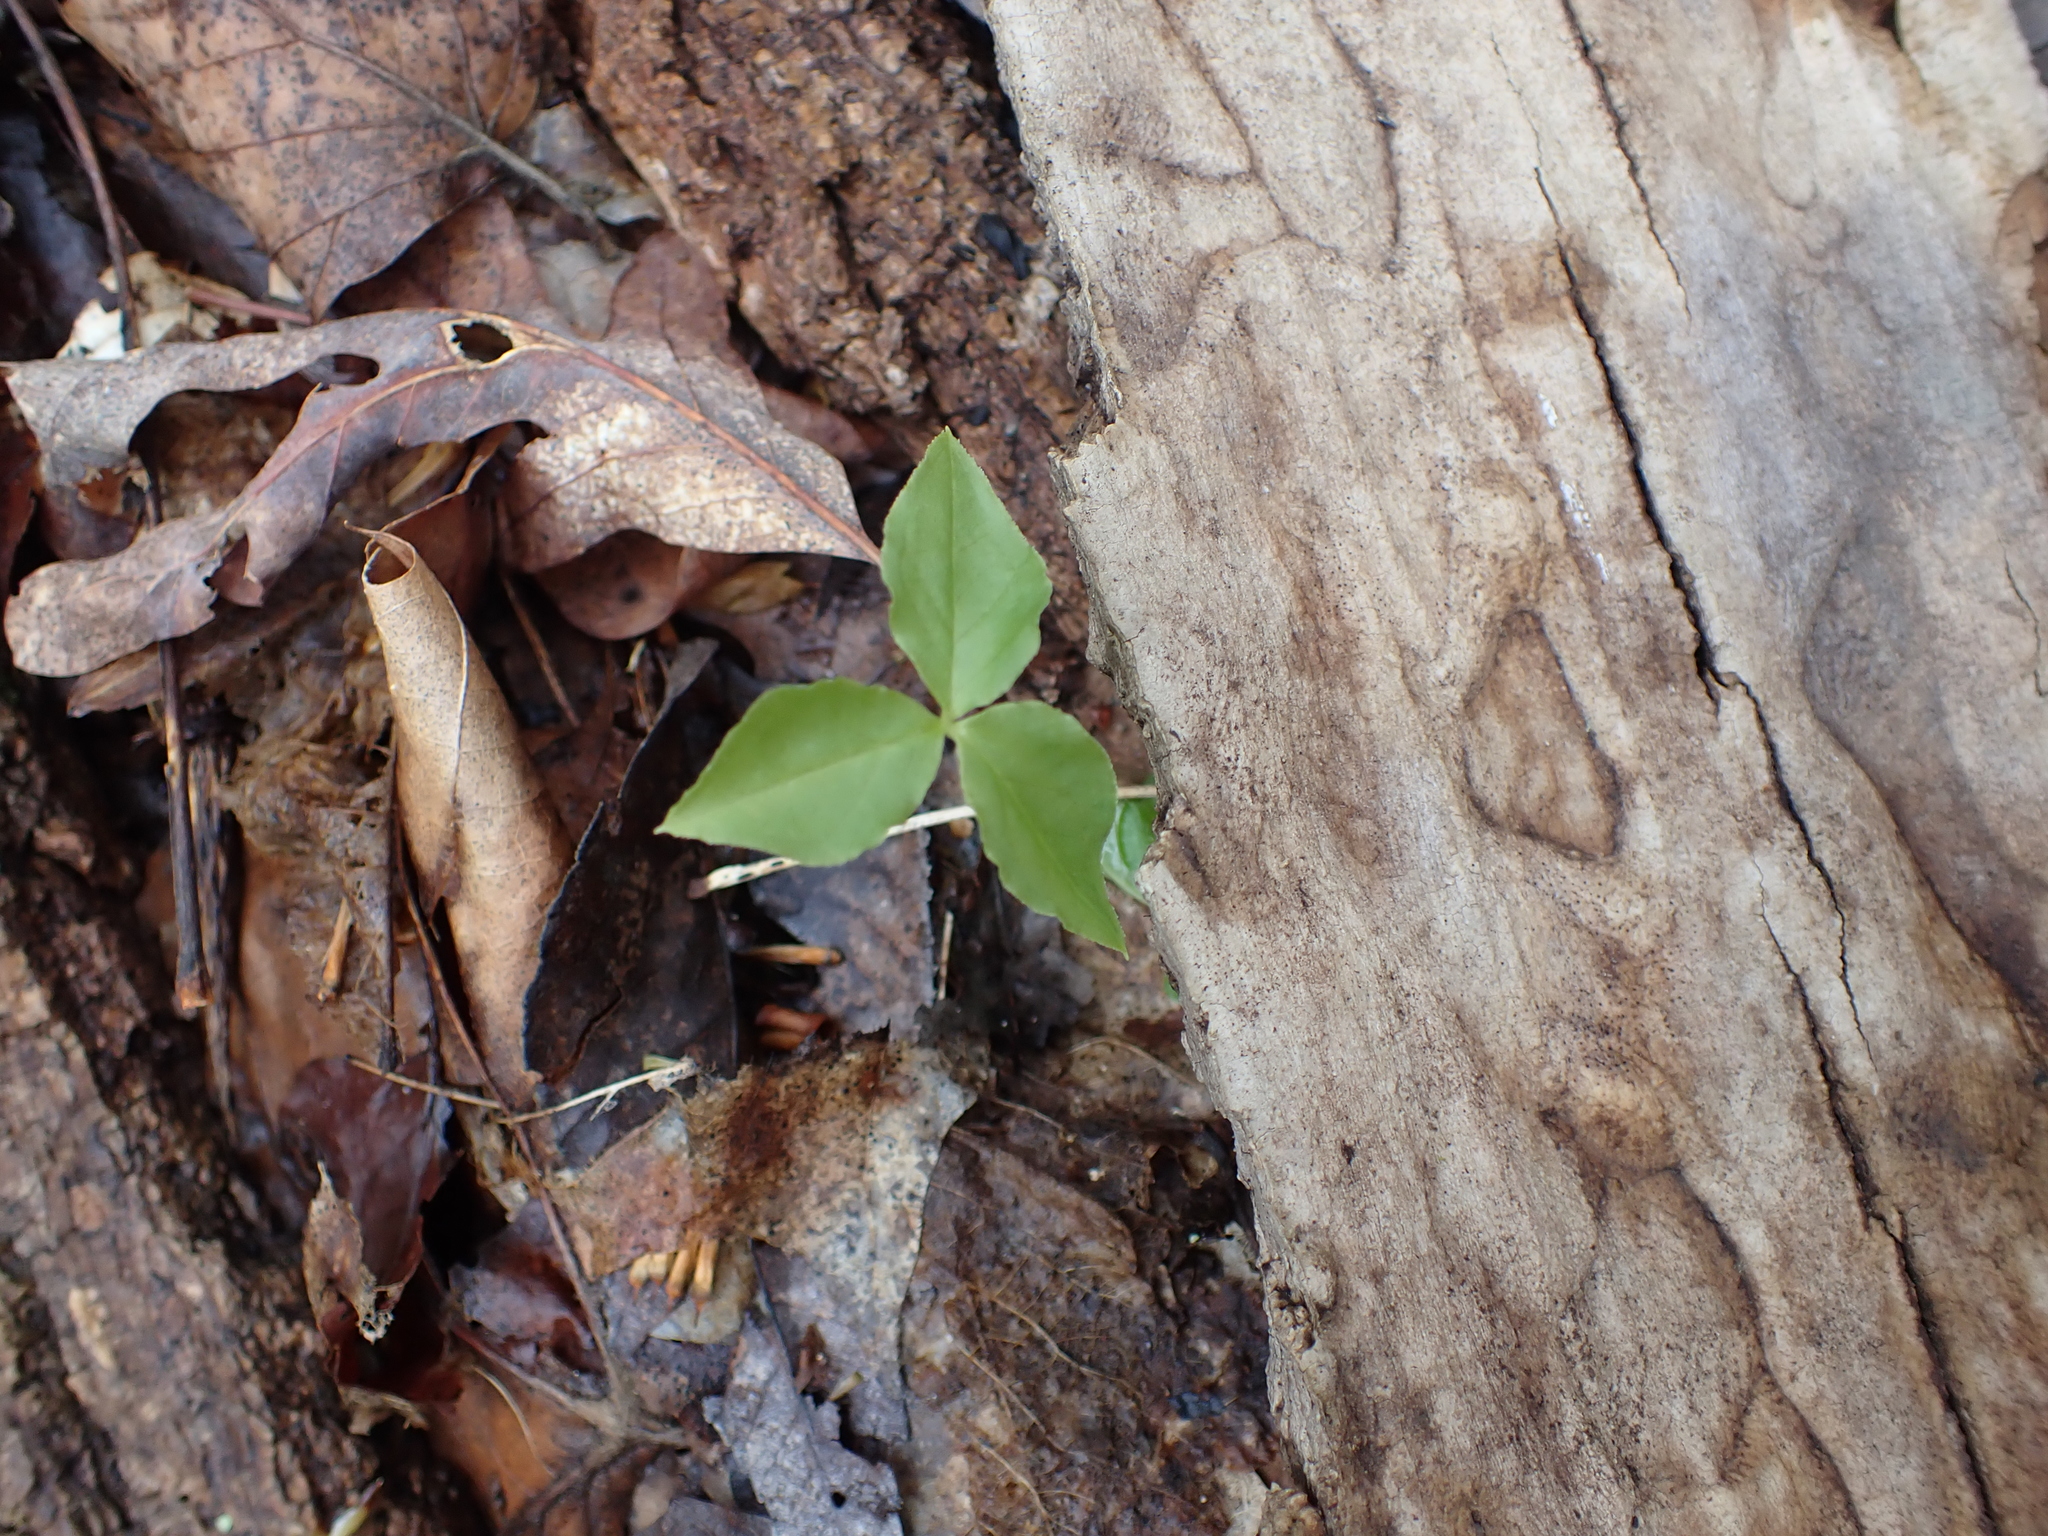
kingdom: Plantae
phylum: Tracheophyta
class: Liliopsida
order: Alismatales
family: Araceae
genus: Arisaema
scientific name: Arisaema triphyllum
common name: Jack-in-the-pulpit
